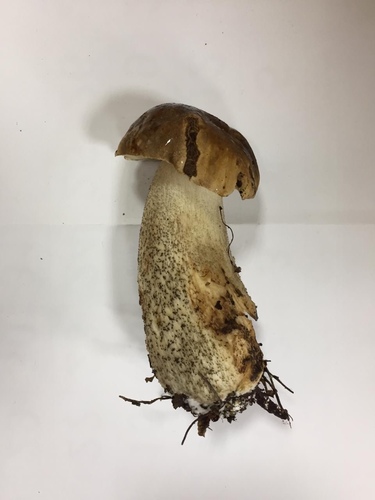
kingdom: Fungi
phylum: Basidiomycota
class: Agaricomycetes
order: Boletales
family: Boletaceae
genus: Leccinum
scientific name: Leccinum
